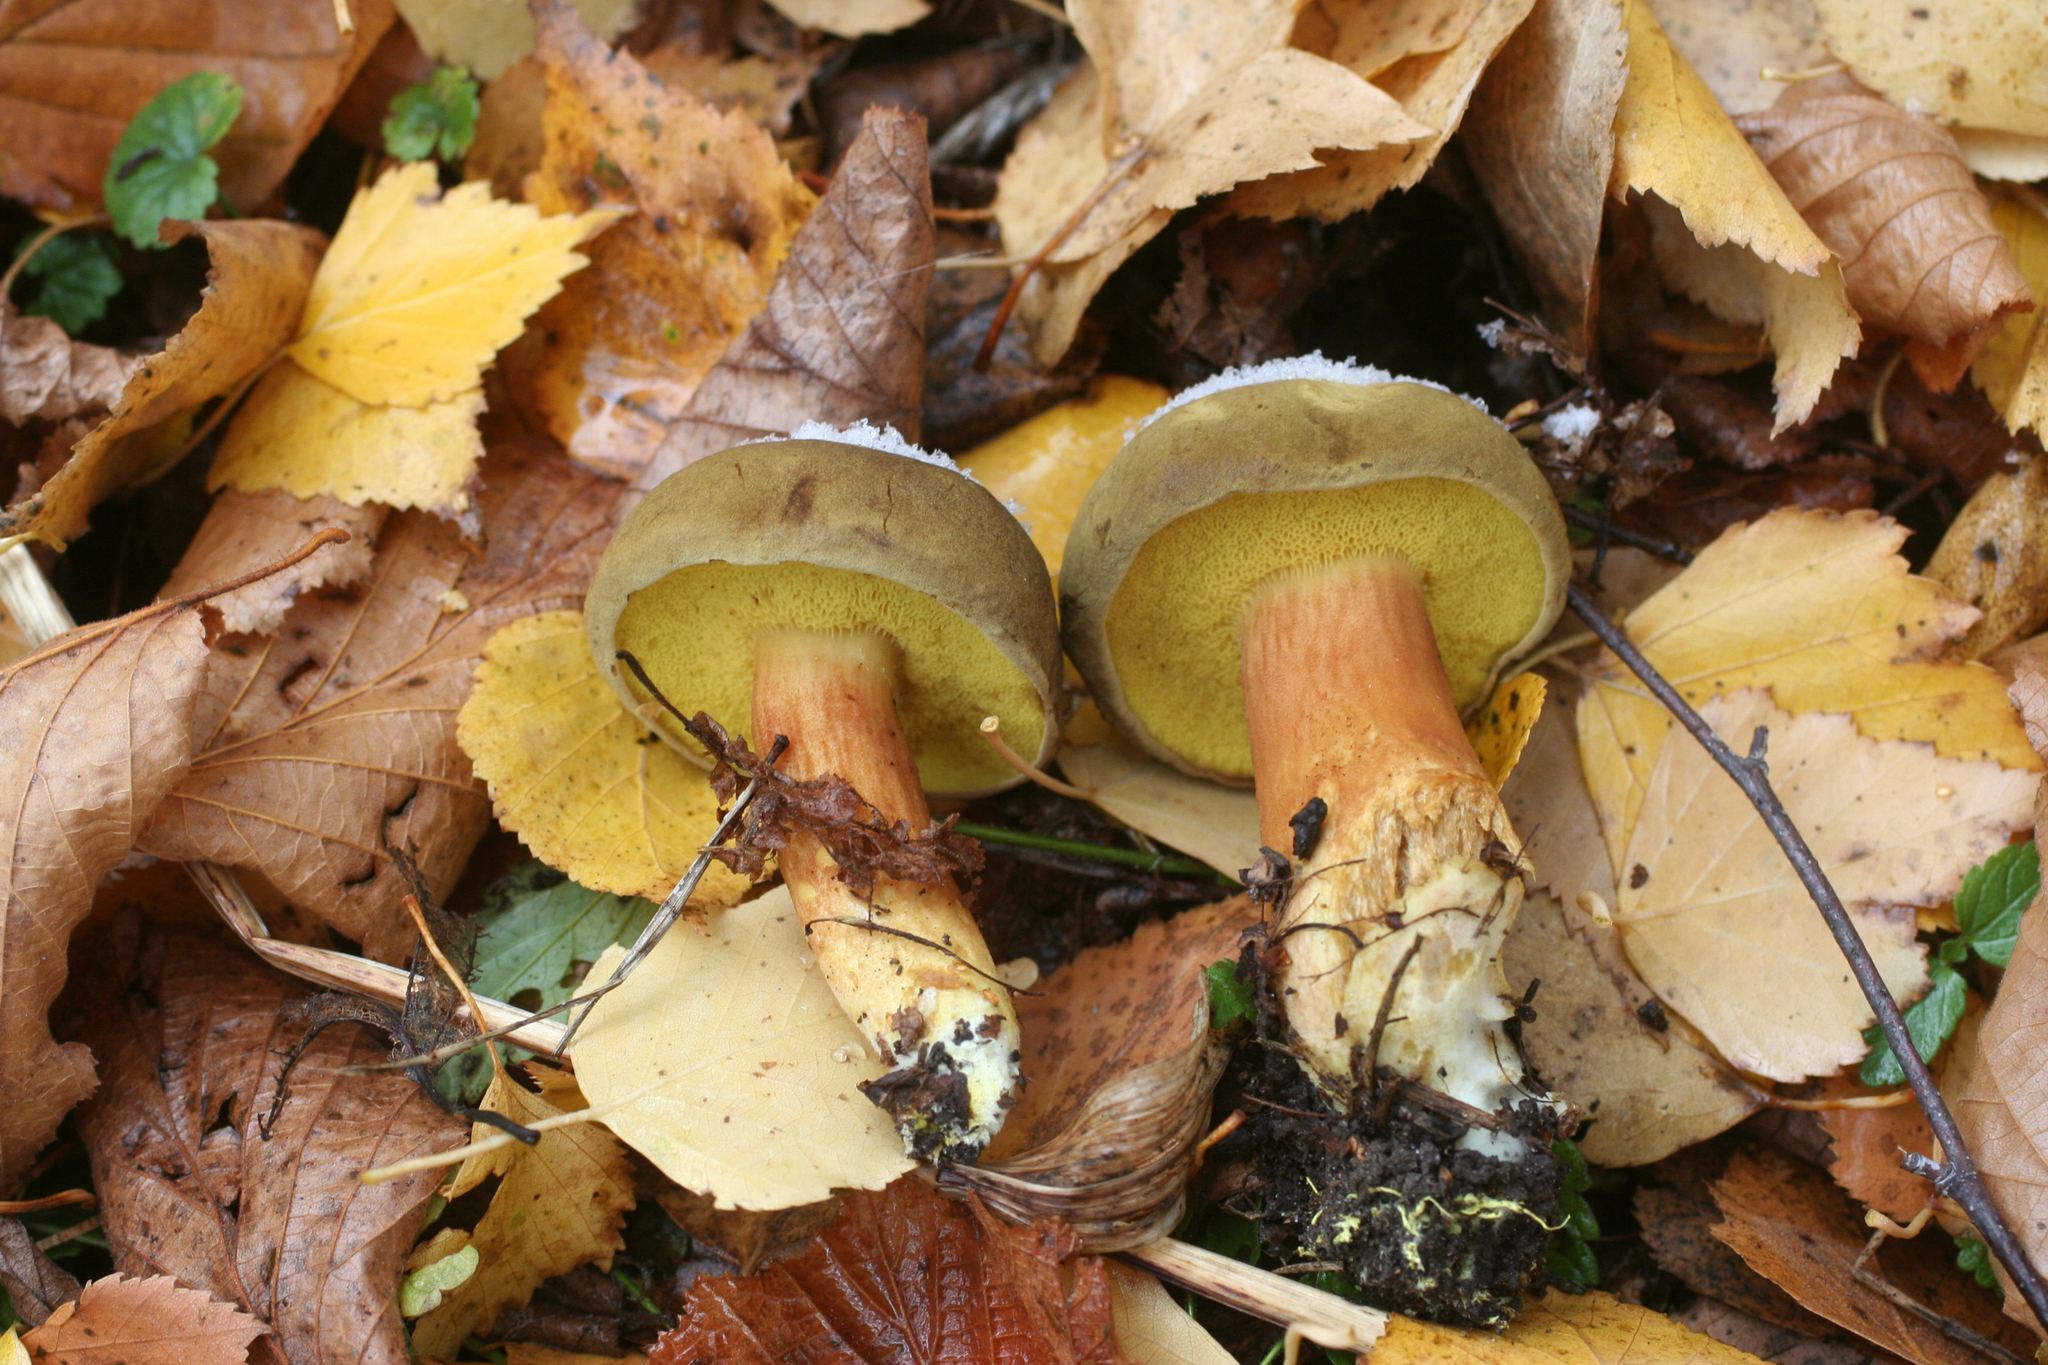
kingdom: Fungi
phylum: Basidiomycota
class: Agaricomycetes
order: Boletales
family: Boletaceae
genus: Xerocomus
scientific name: Xerocomus subtomentosus
